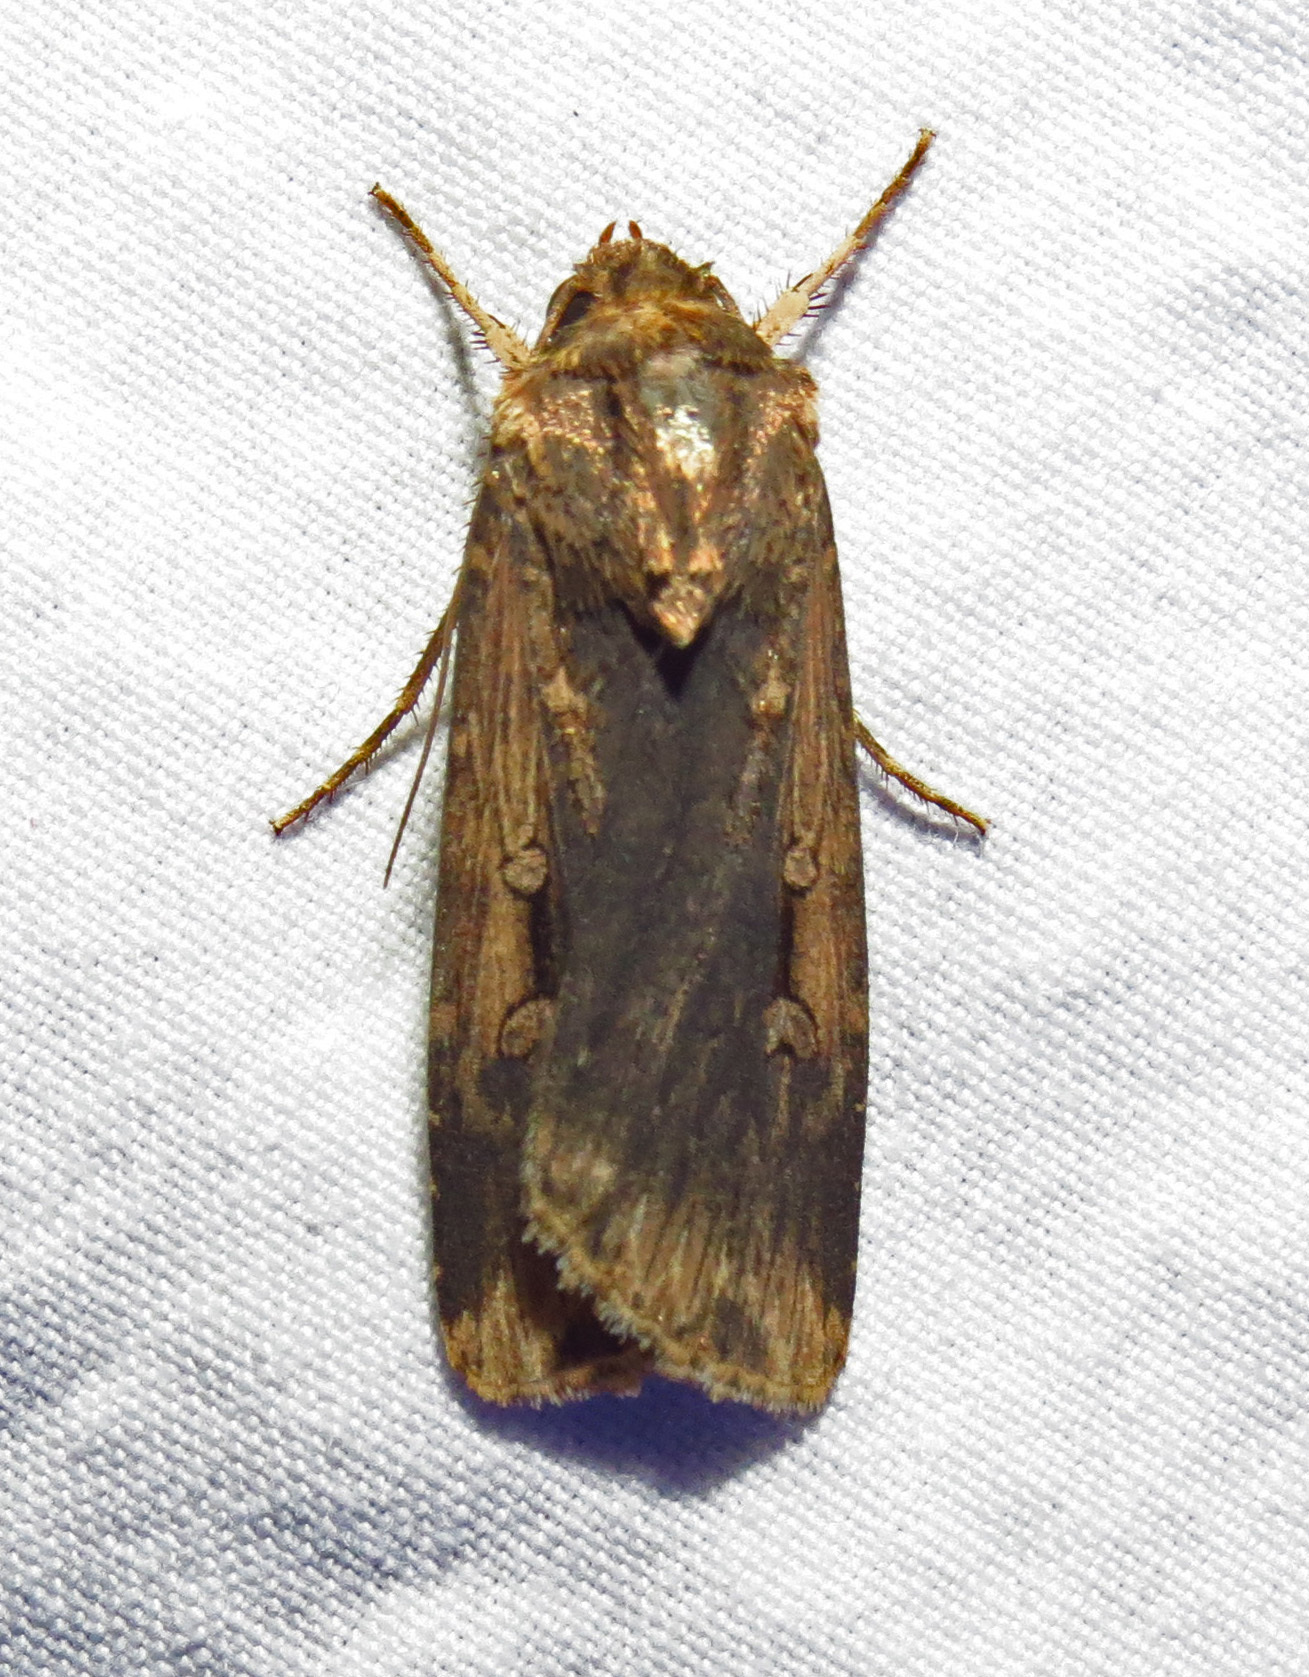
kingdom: Animalia
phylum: Arthropoda
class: Insecta
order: Lepidoptera
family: Noctuidae
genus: Feltia
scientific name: Feltia subterranea
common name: Granulate cutworm
